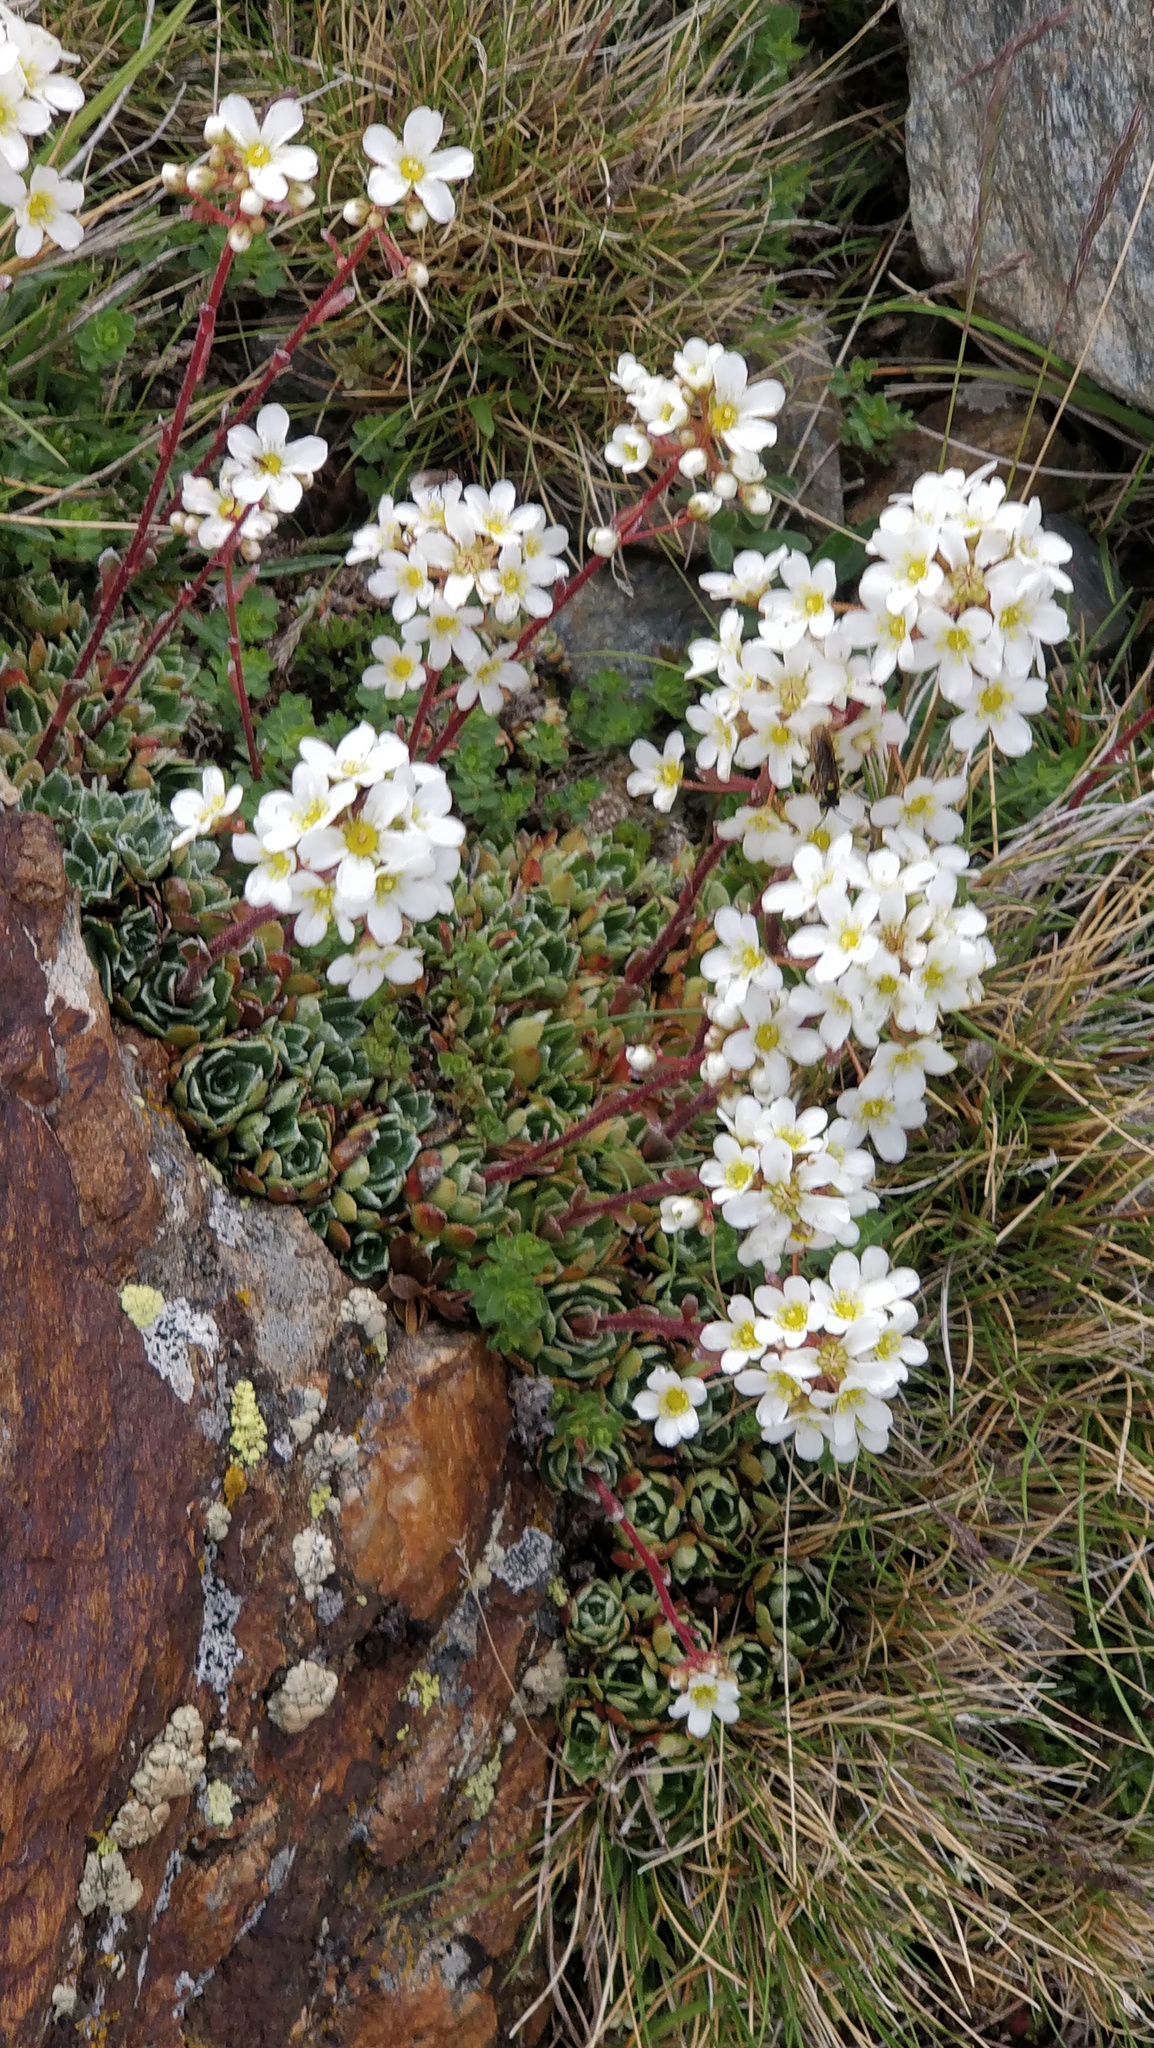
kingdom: Plantae
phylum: Tracheophyta
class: Magnoliopsida
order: Saxifragales
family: Saxifragaceae
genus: Saxifraga
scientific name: Saxifraga paniculata
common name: Livelong saxifrage
